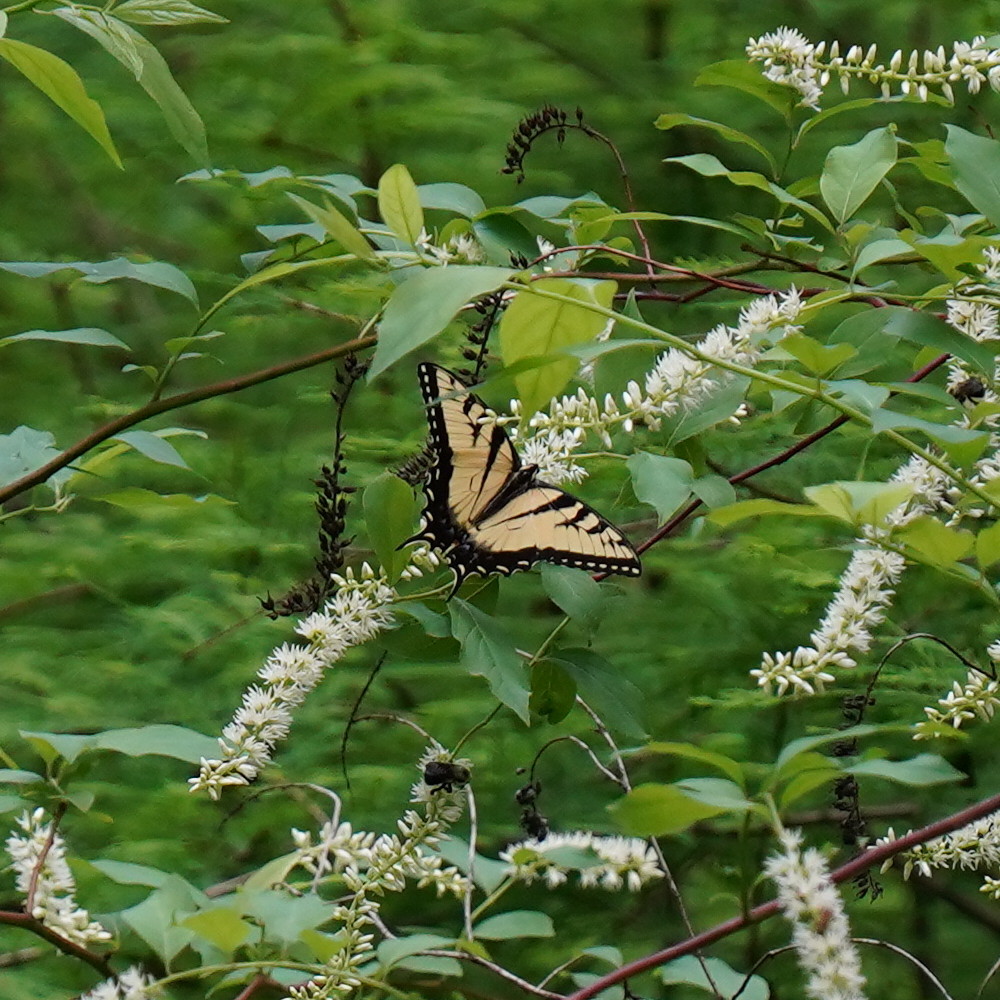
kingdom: Animalia
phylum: Arthropoda
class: Insecta
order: Lepidoptera
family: Papilionidae
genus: Papilio
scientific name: Papilio glaucus
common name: Tiger swallowtail
